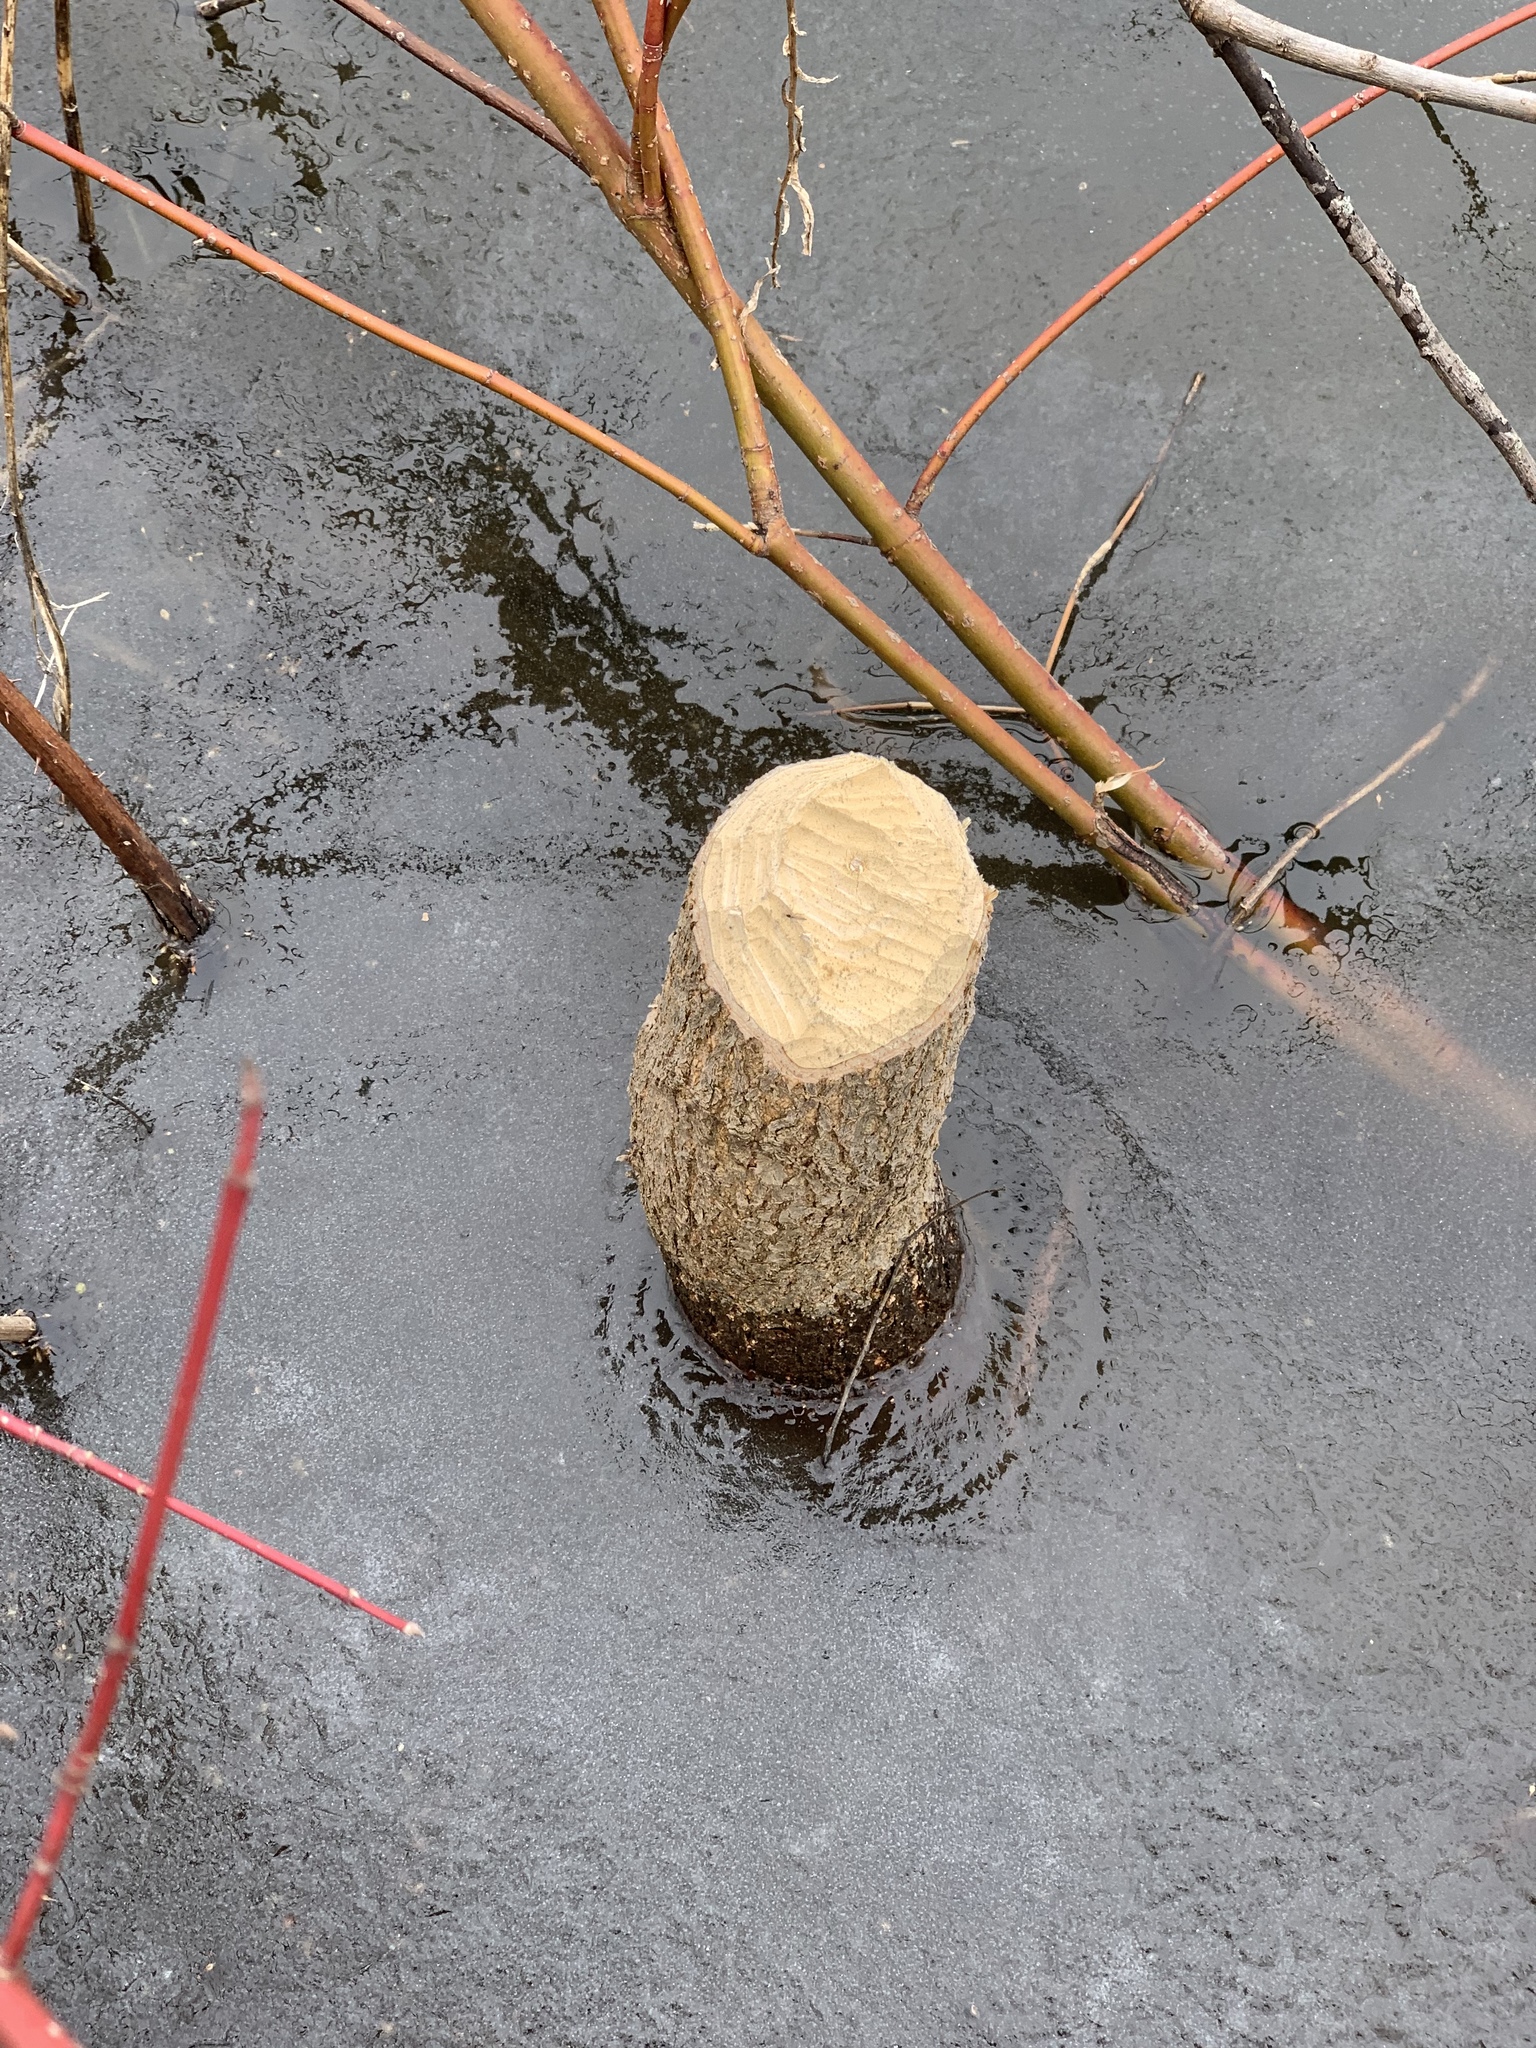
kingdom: Animalia
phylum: Chordata
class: Mammalia
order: Rodentia
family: Castoridae
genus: Castor
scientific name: Castor canadensis
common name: American beaver
